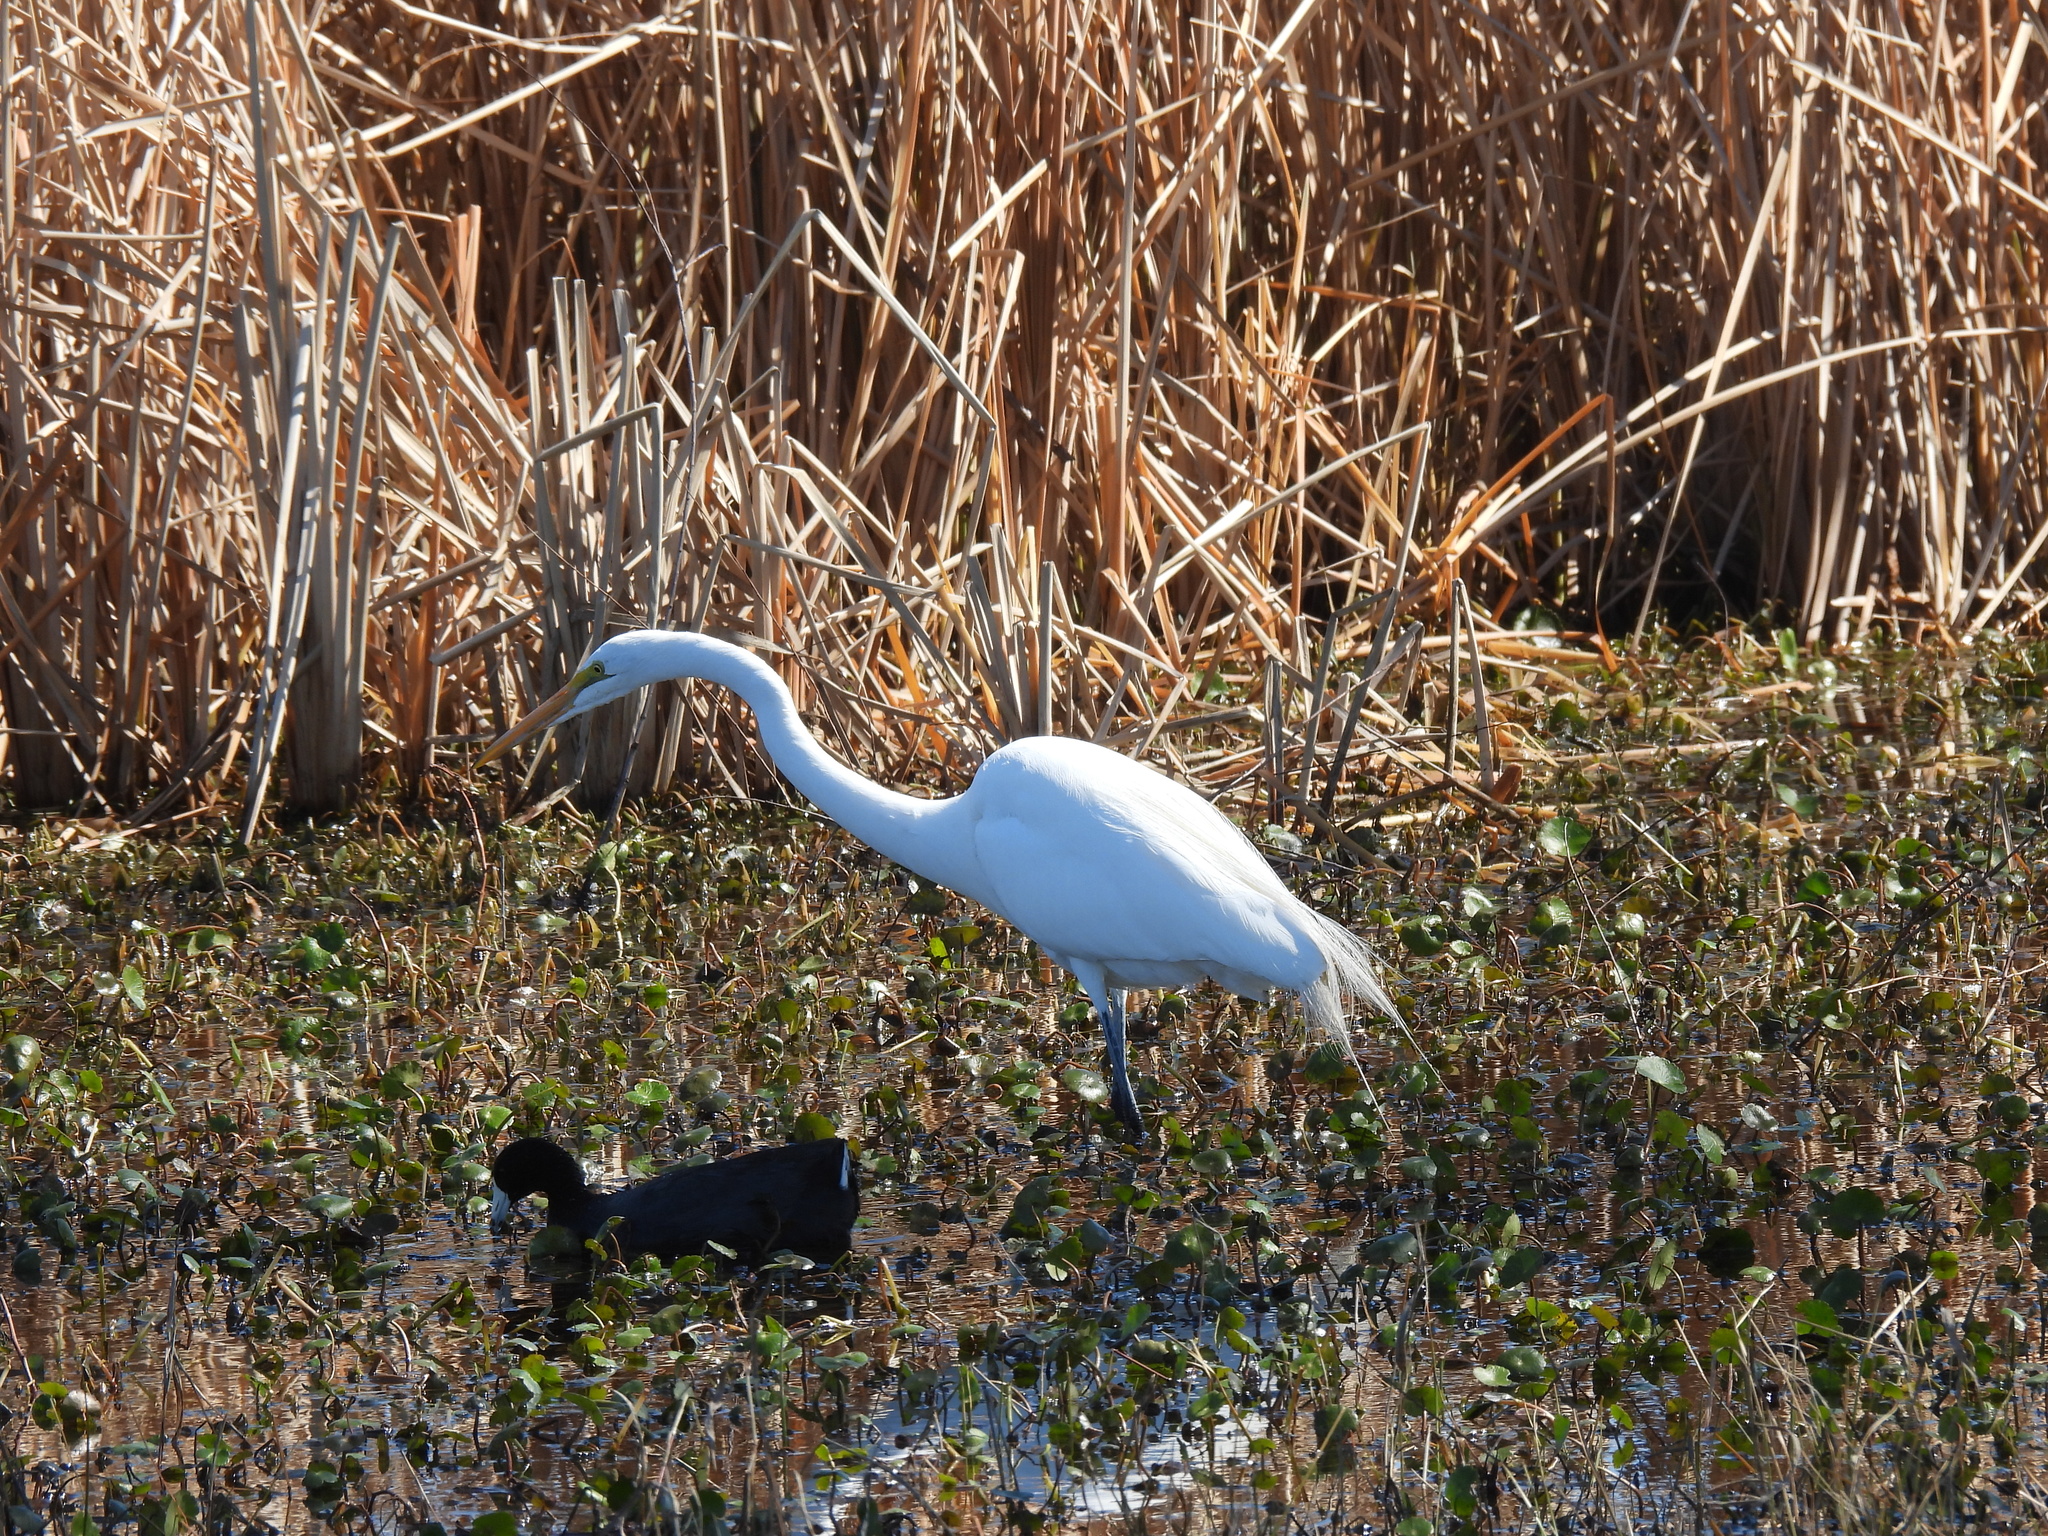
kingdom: Animalia
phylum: Chordata
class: Aves
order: Pelecaniformes
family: Ardeidae
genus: Ardea
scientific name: Ardea alba
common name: Great egret
